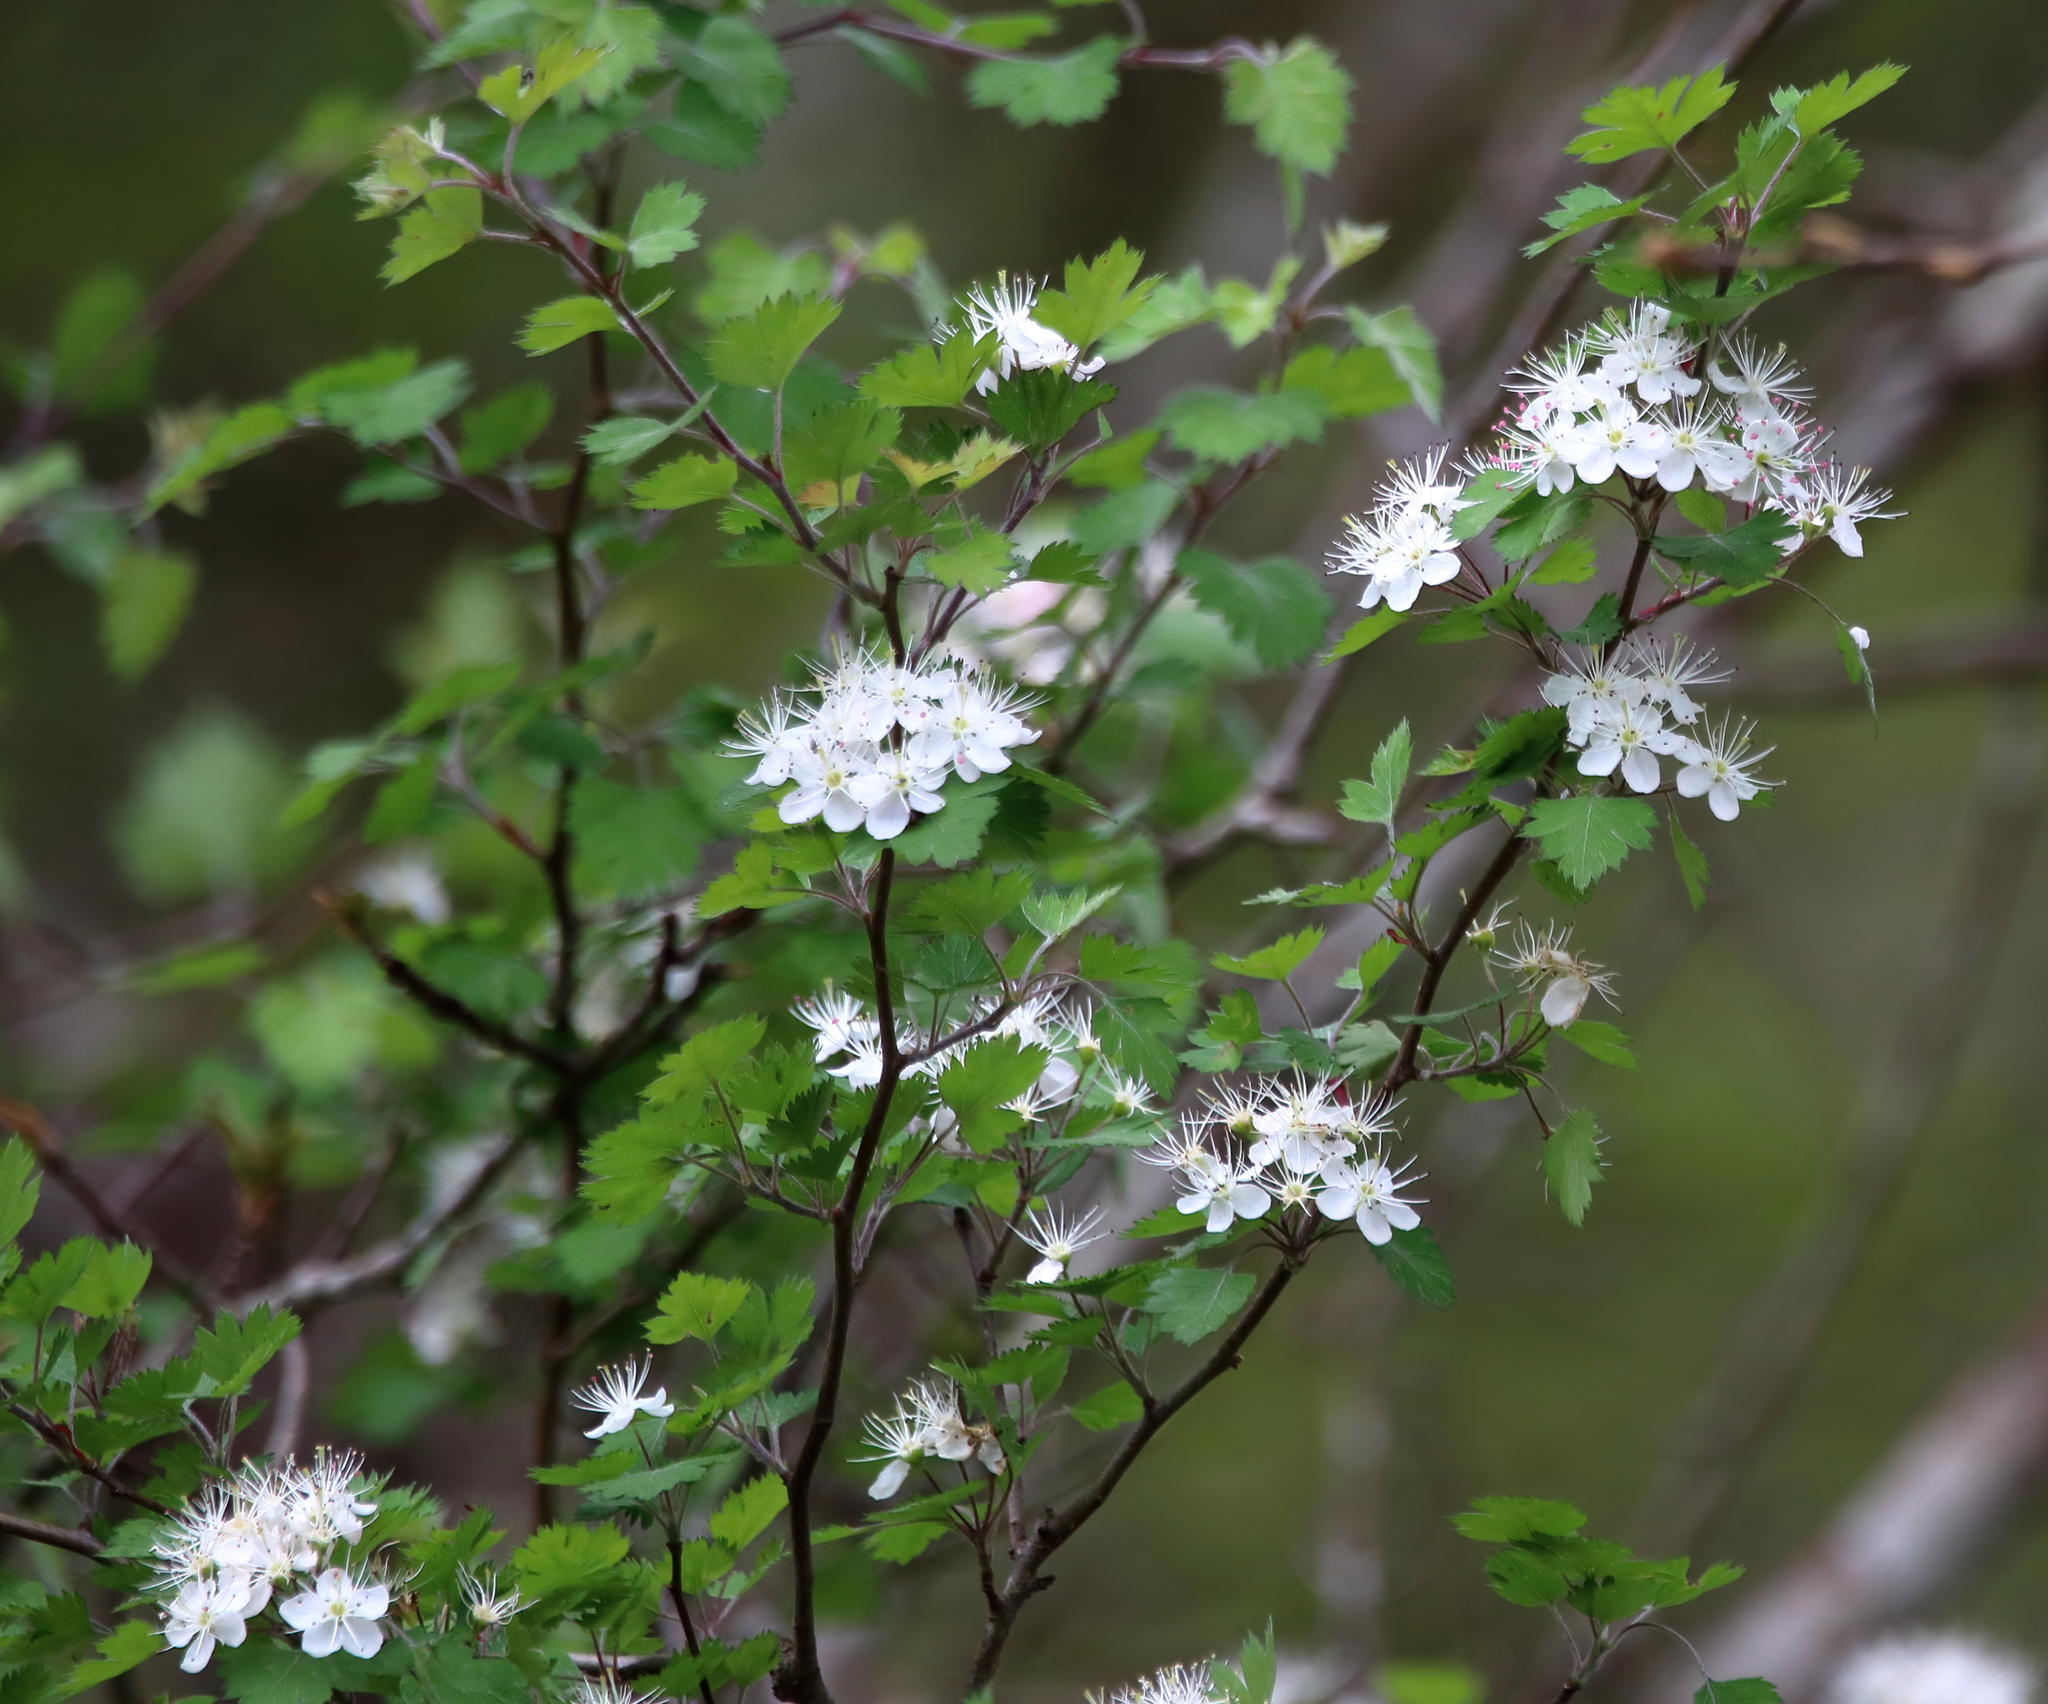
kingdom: Plantae
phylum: Tracheophyta
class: Magnoliopsida
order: Rosales
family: Rosaceae
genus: Crataegus
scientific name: Crataegus marshallii
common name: Parsley-hawthorn
